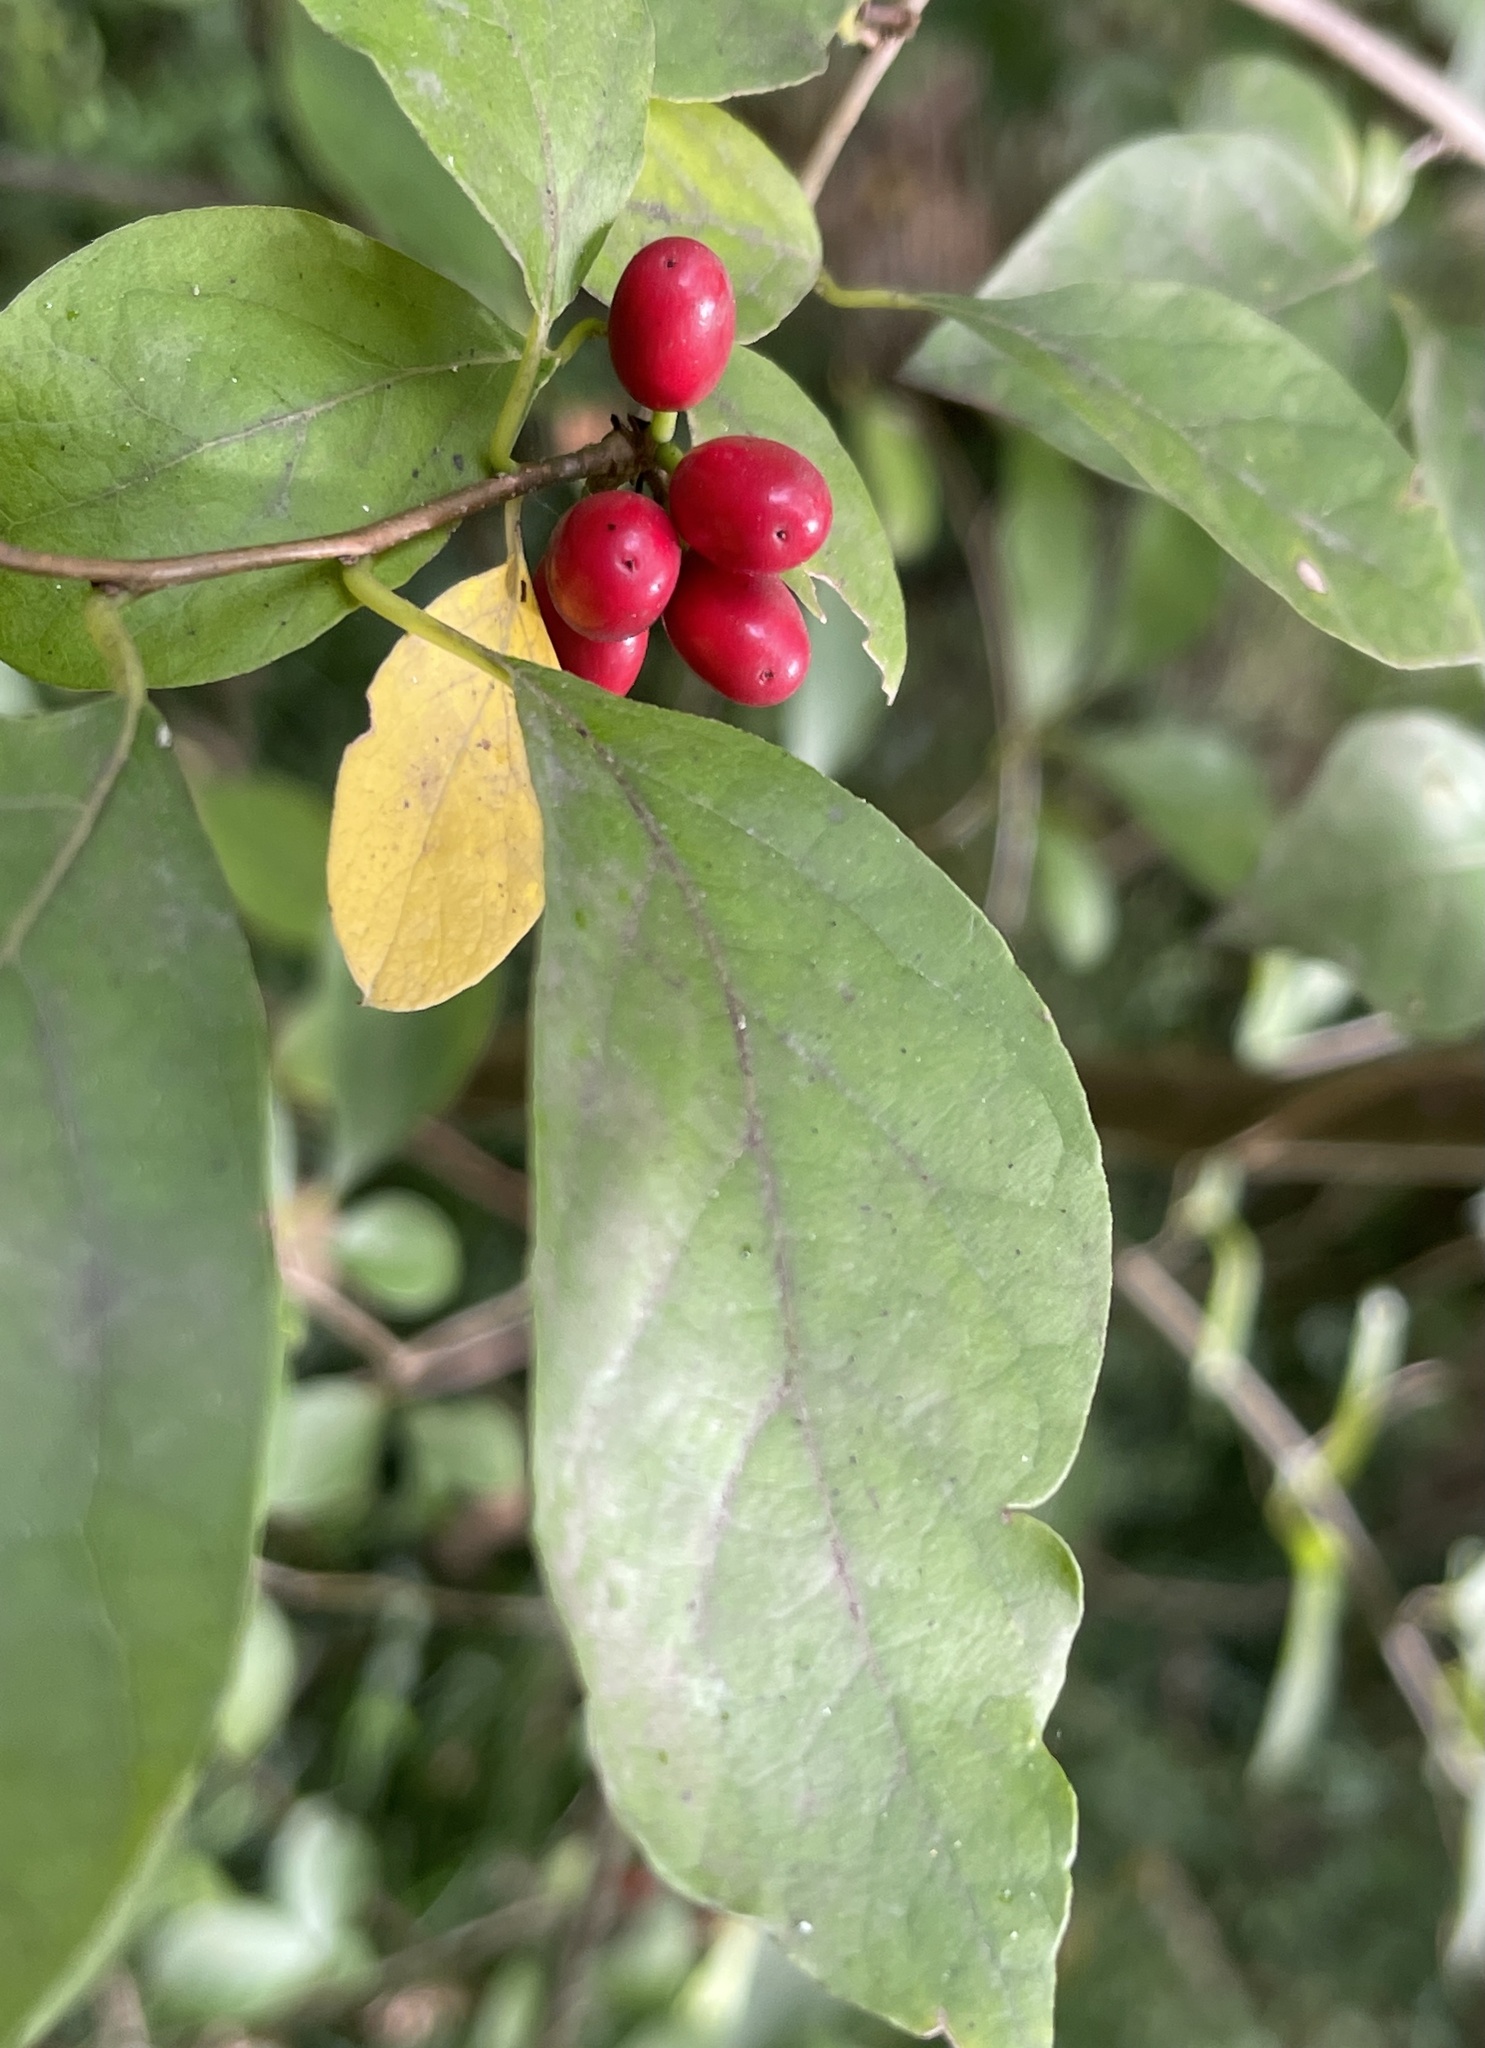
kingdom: Plantae
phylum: Tracheophyta
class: Magnoliopsida
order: Laurales
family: Lauraceae
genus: Lindera
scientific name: Lindera benzoin
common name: Spicebush
